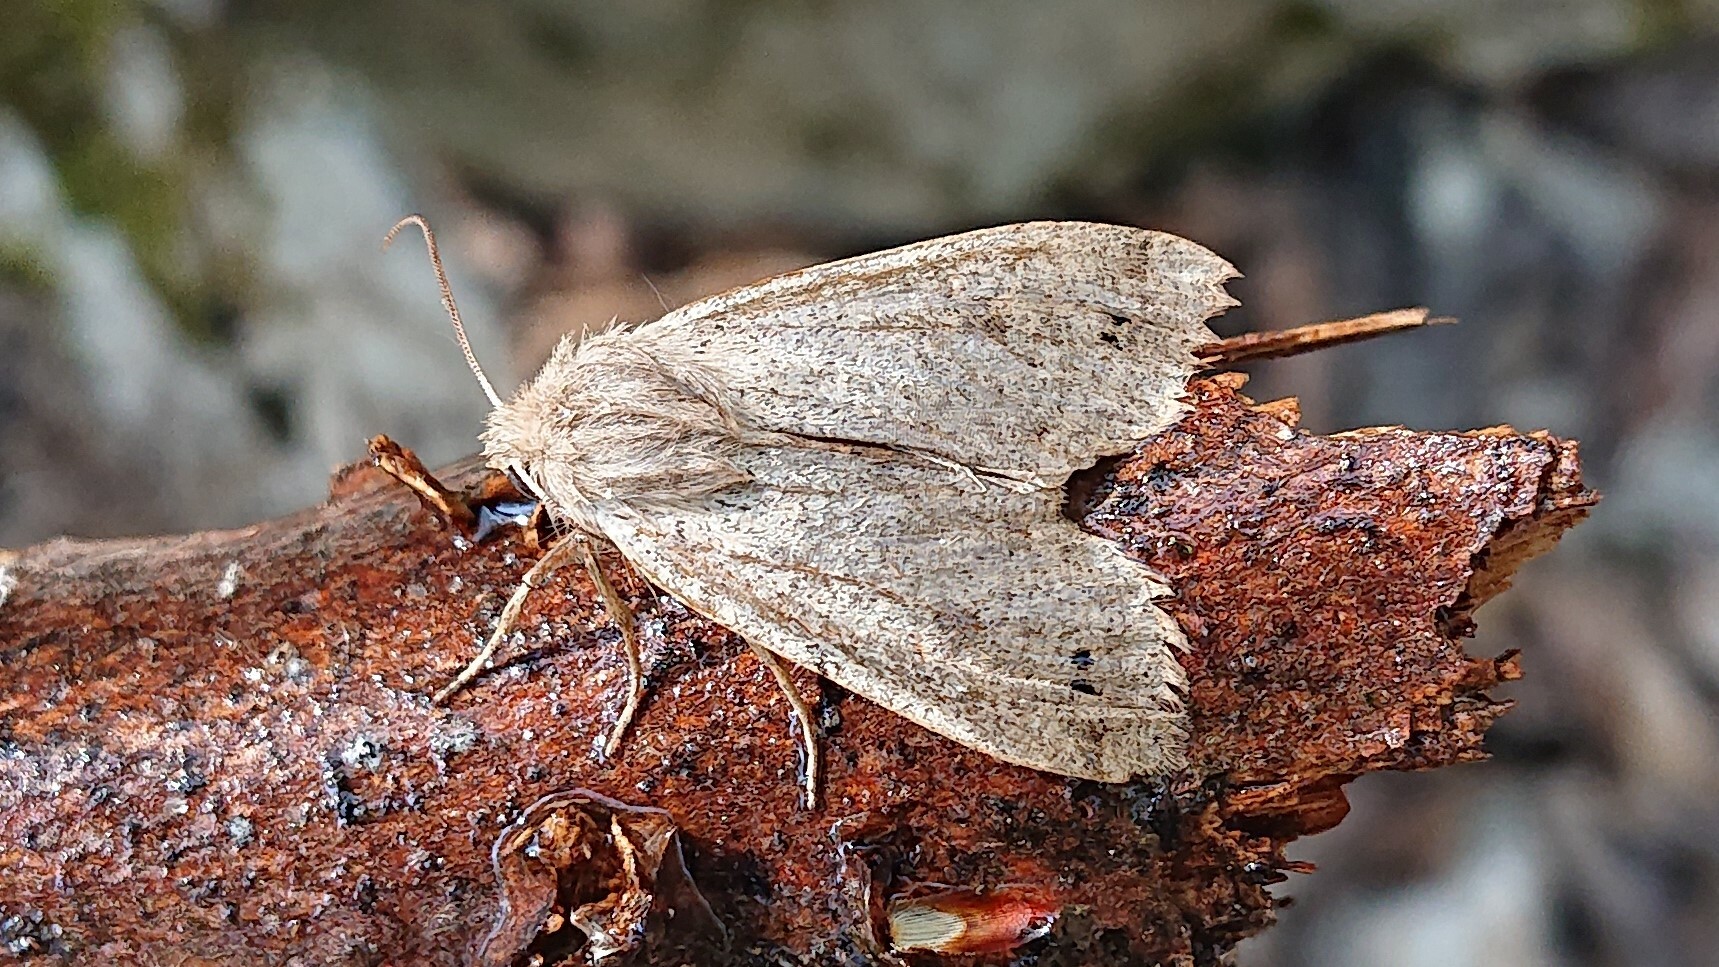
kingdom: Animalia
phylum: Arthropoda
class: Insecta
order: Lepidoptera
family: Noctuidae
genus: Anorthoa
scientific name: Anorthoa munda
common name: Twin-spotted quaker
